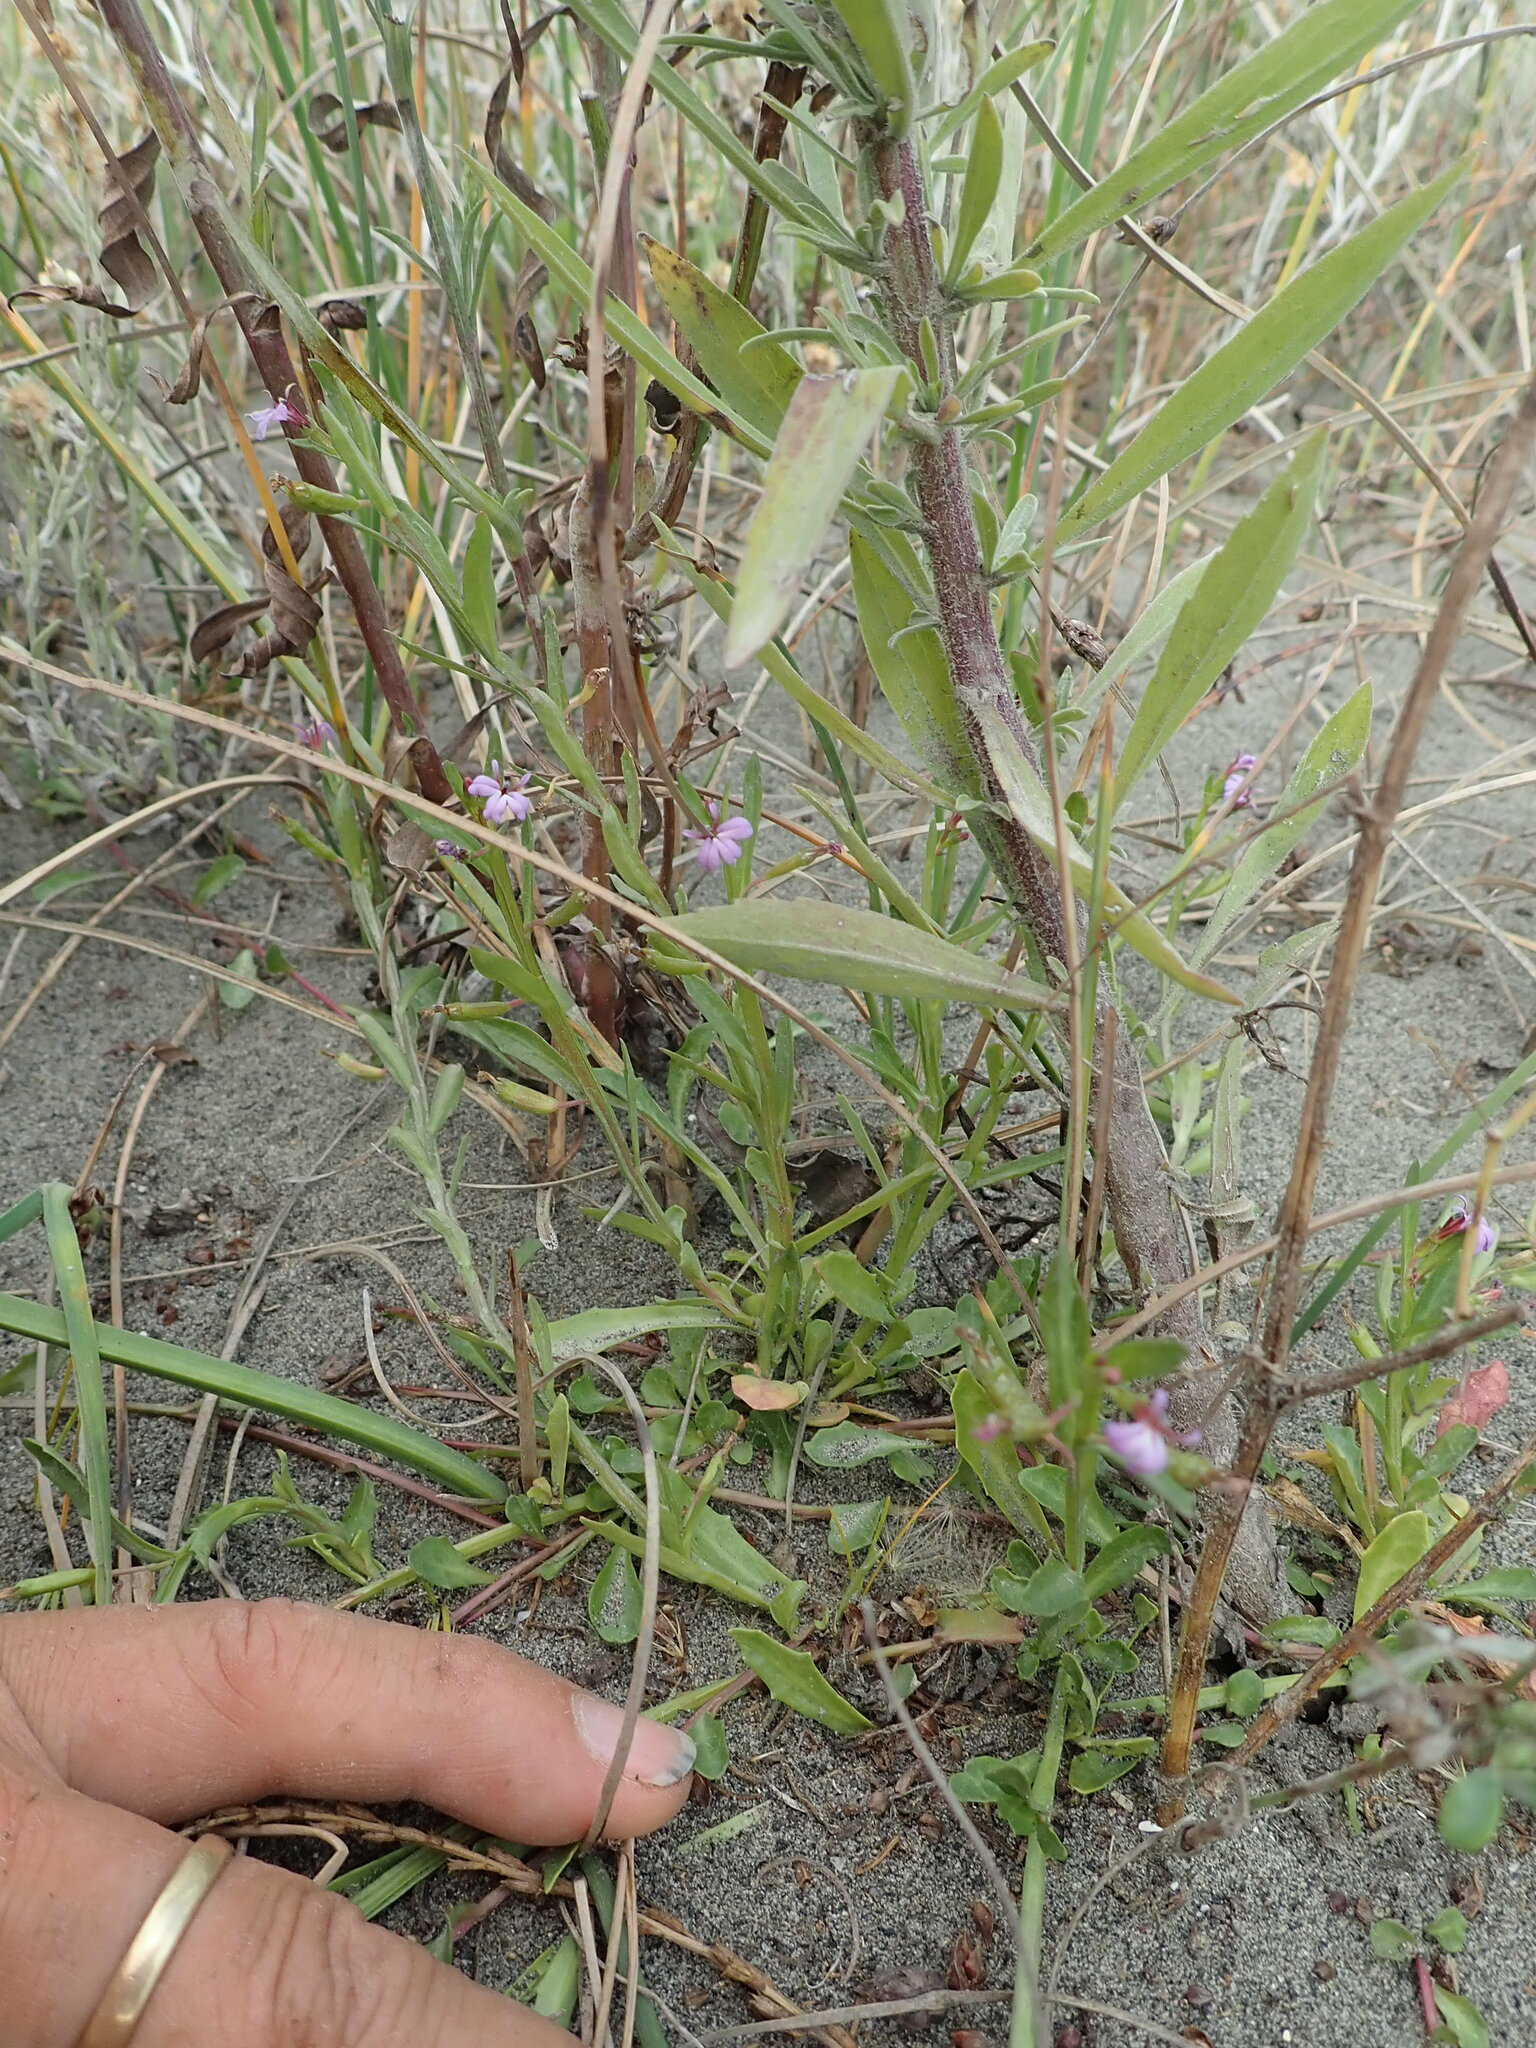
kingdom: Plantae
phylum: Tracheophyta
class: Magnoliopsida
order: Asterales
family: Campanulaceae
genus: Lobelia
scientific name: Lobelia anceps
